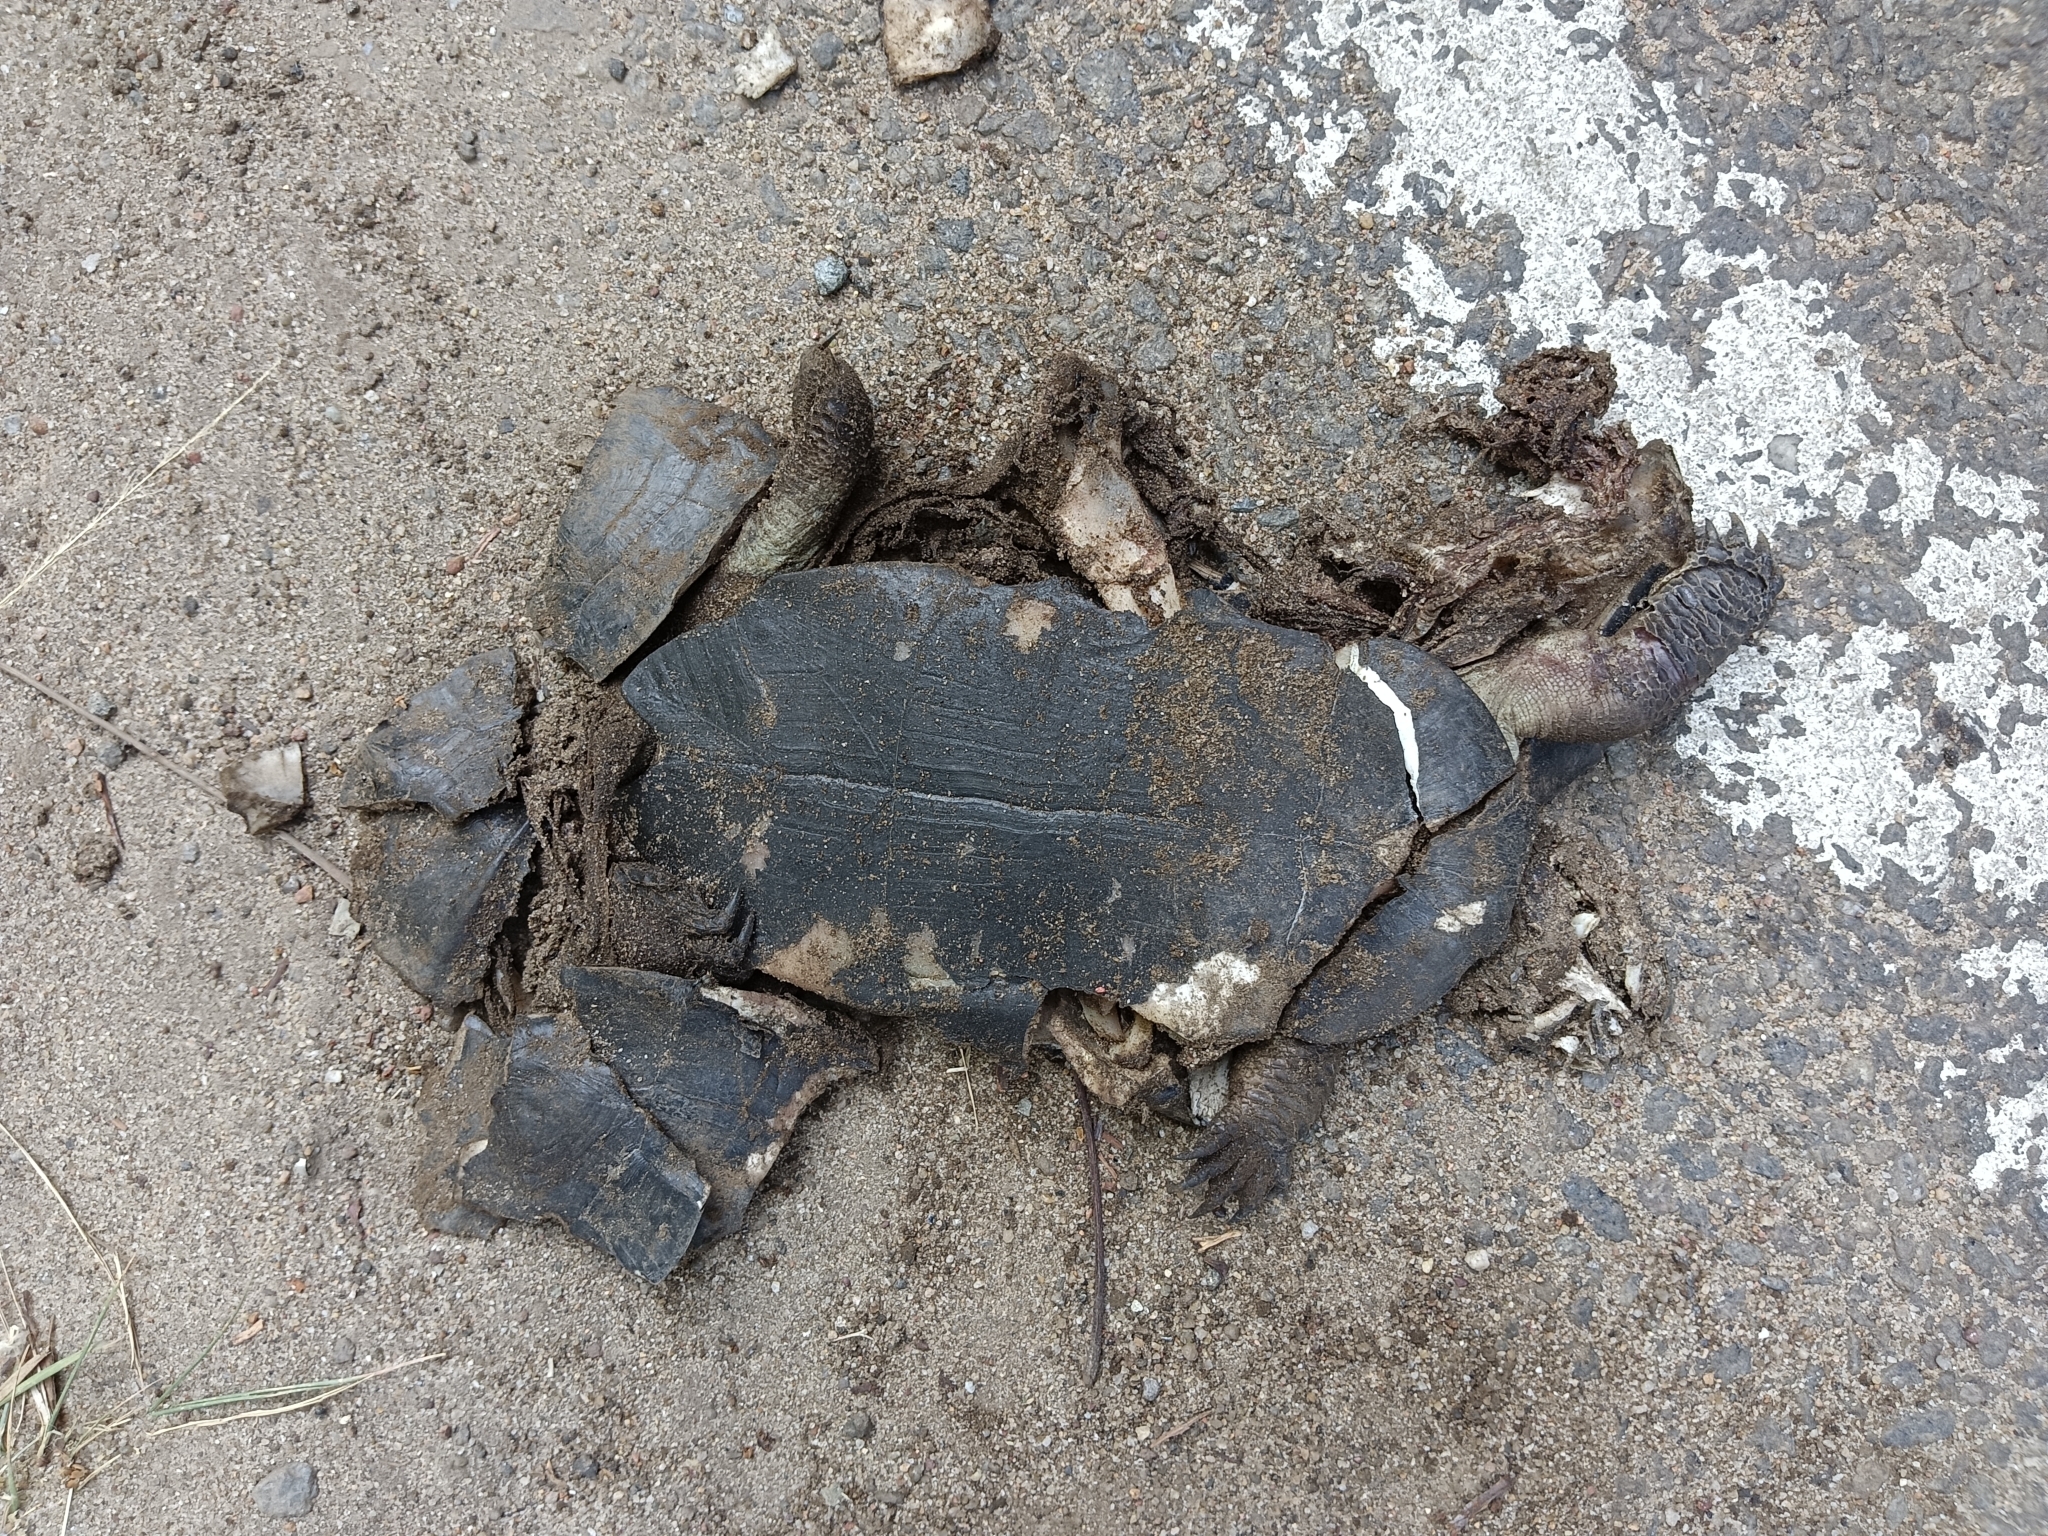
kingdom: Animalia
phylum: Chordata
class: Testudines
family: Geoemydidae
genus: Melanochelys
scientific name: Melanochelys trijuga
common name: Indian black turtle
